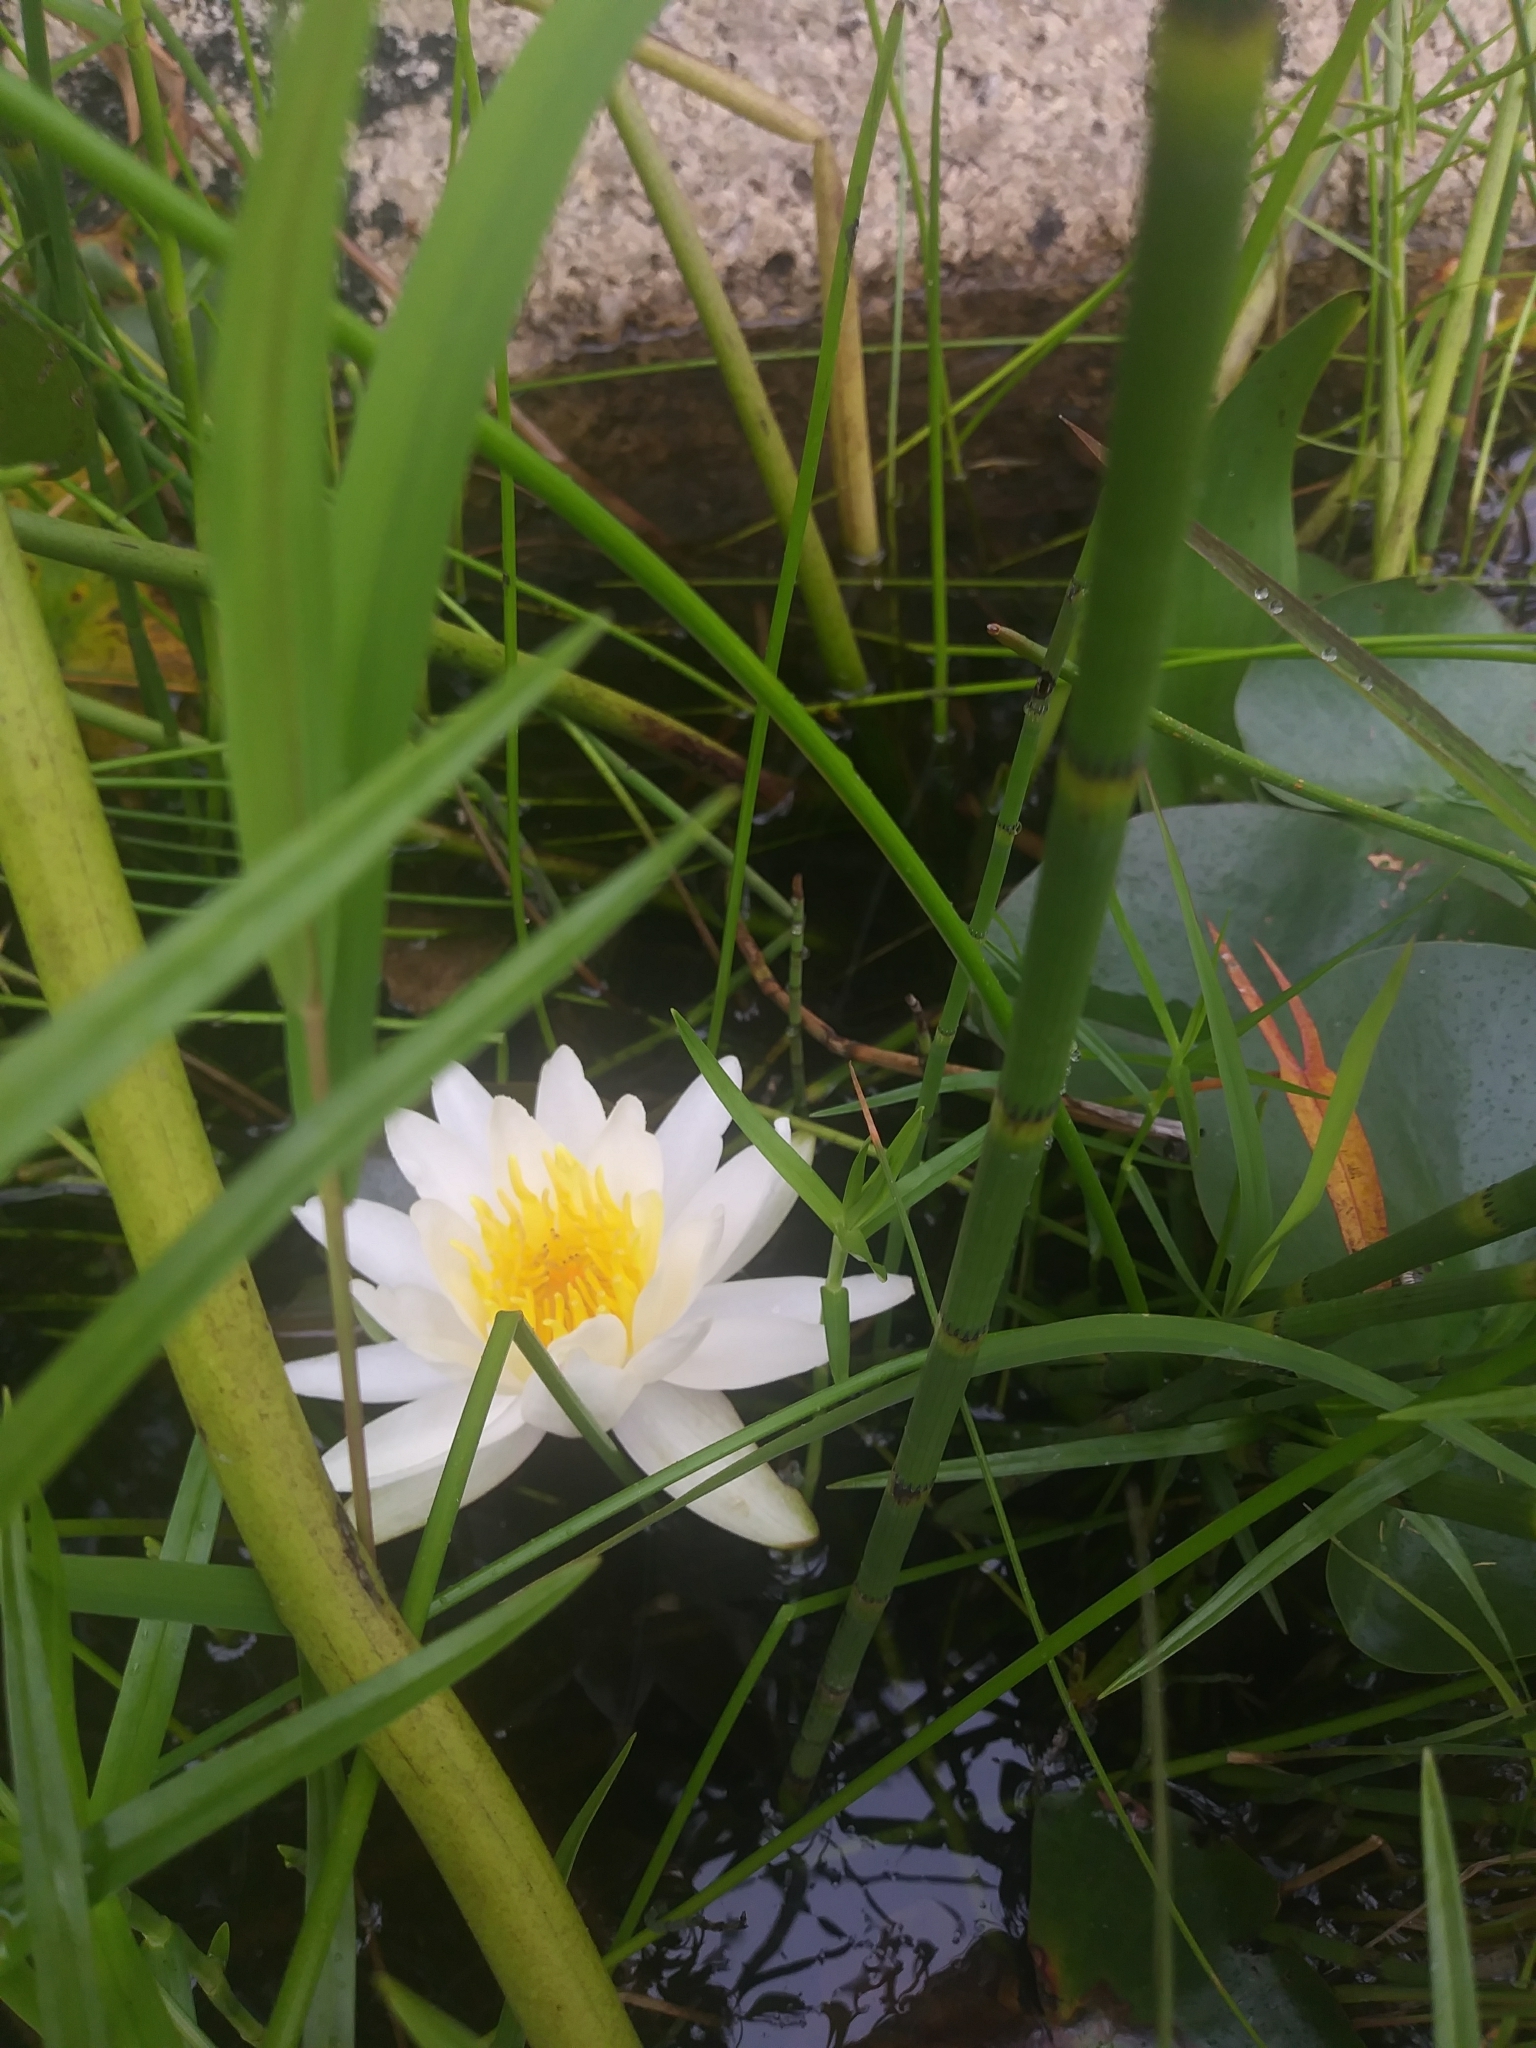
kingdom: Plantae
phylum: Tracheophyta
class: Magnoliopsida
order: Nymphaeales
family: Nymphaeaceae
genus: Nymphaea
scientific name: Nymphaea odorata
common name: Fragrant water-lily
